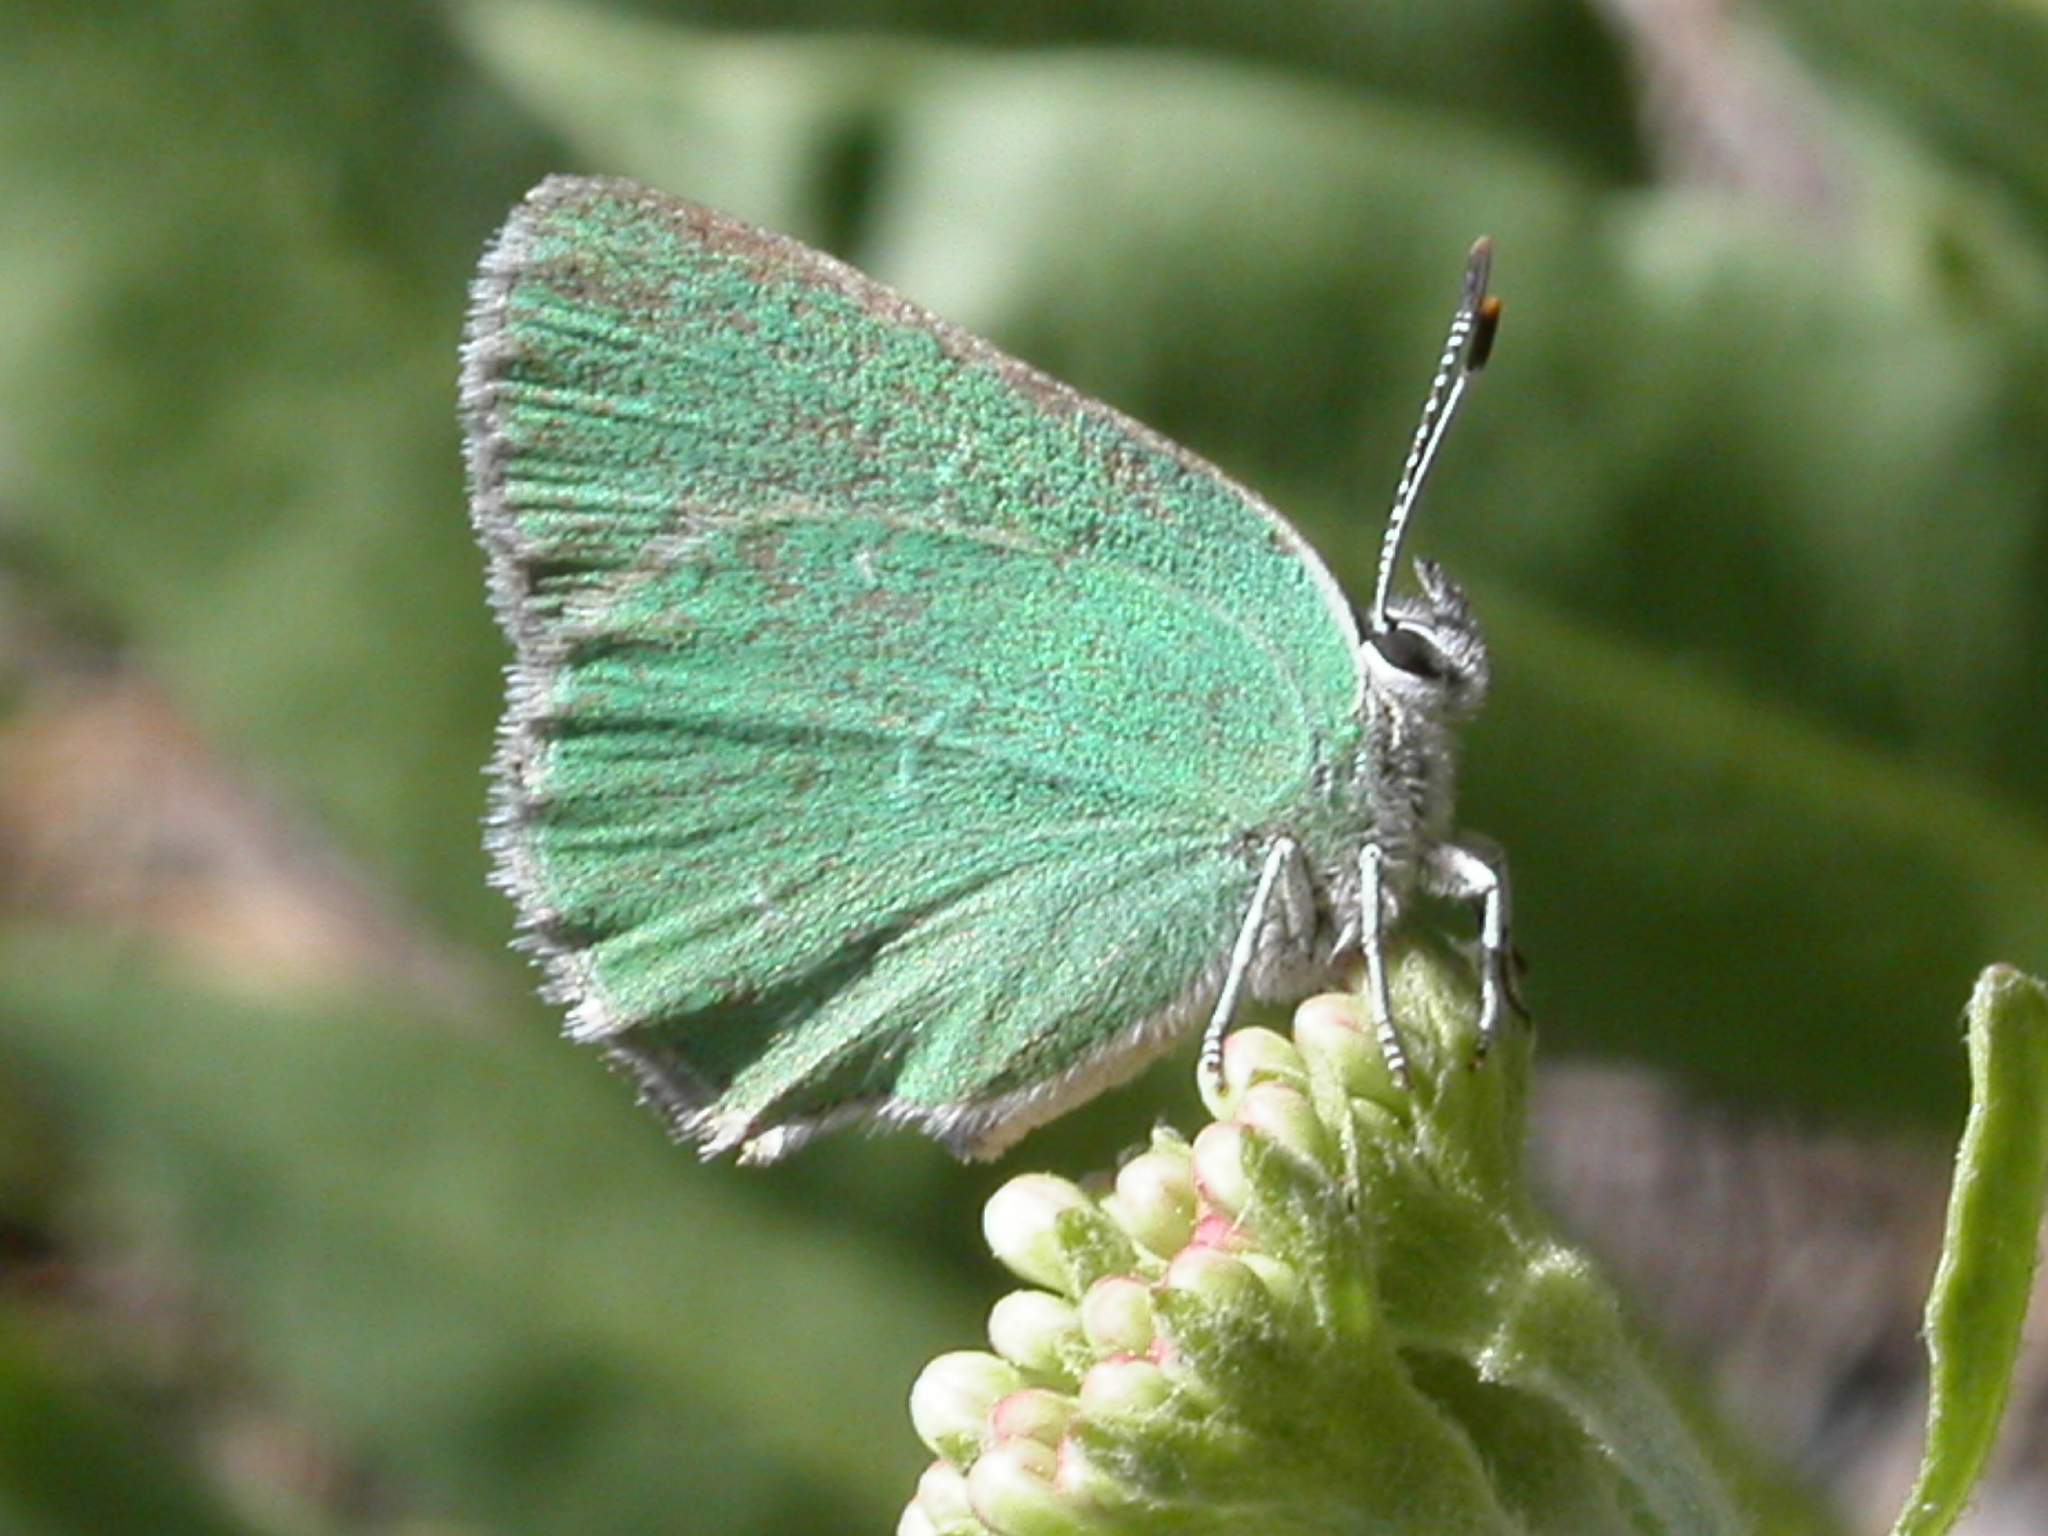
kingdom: Animalia
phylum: Arthropoda
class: Insecta
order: Lepidoptera
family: Lycaenidae
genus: Callophrys
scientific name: Callophrys affinis
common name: Western green hairstreak
